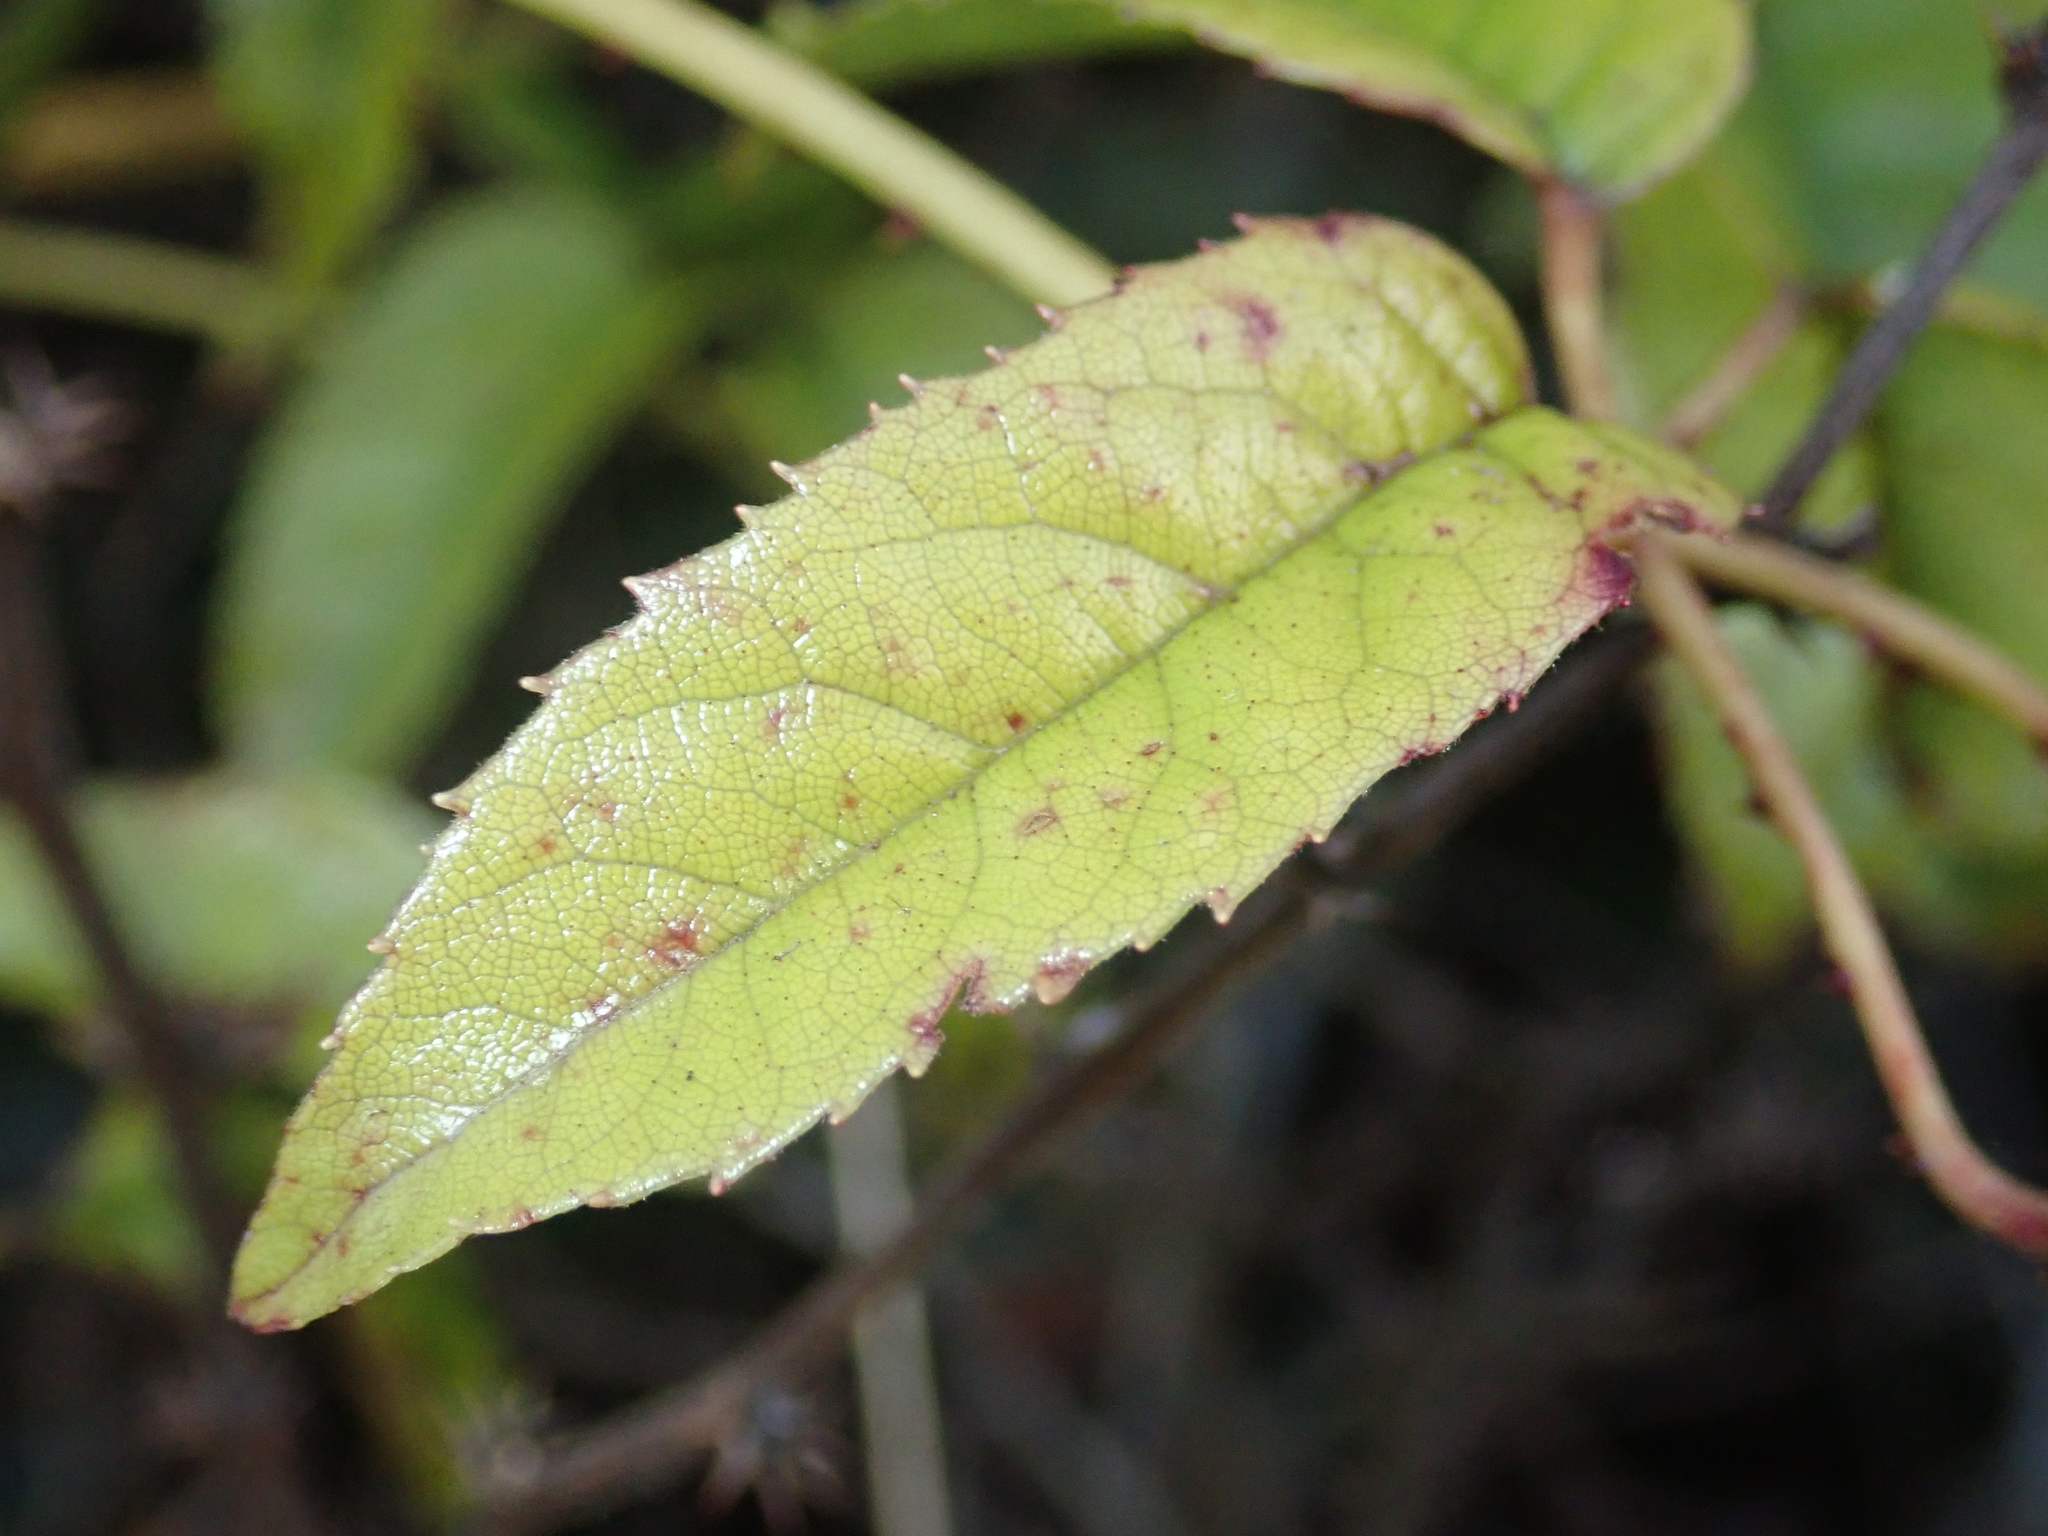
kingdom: Plantae
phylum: Tracheophyta
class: Magnoliopsida
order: Rosales
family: Rosaceae
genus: Rubus
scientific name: Rubus cissoides
